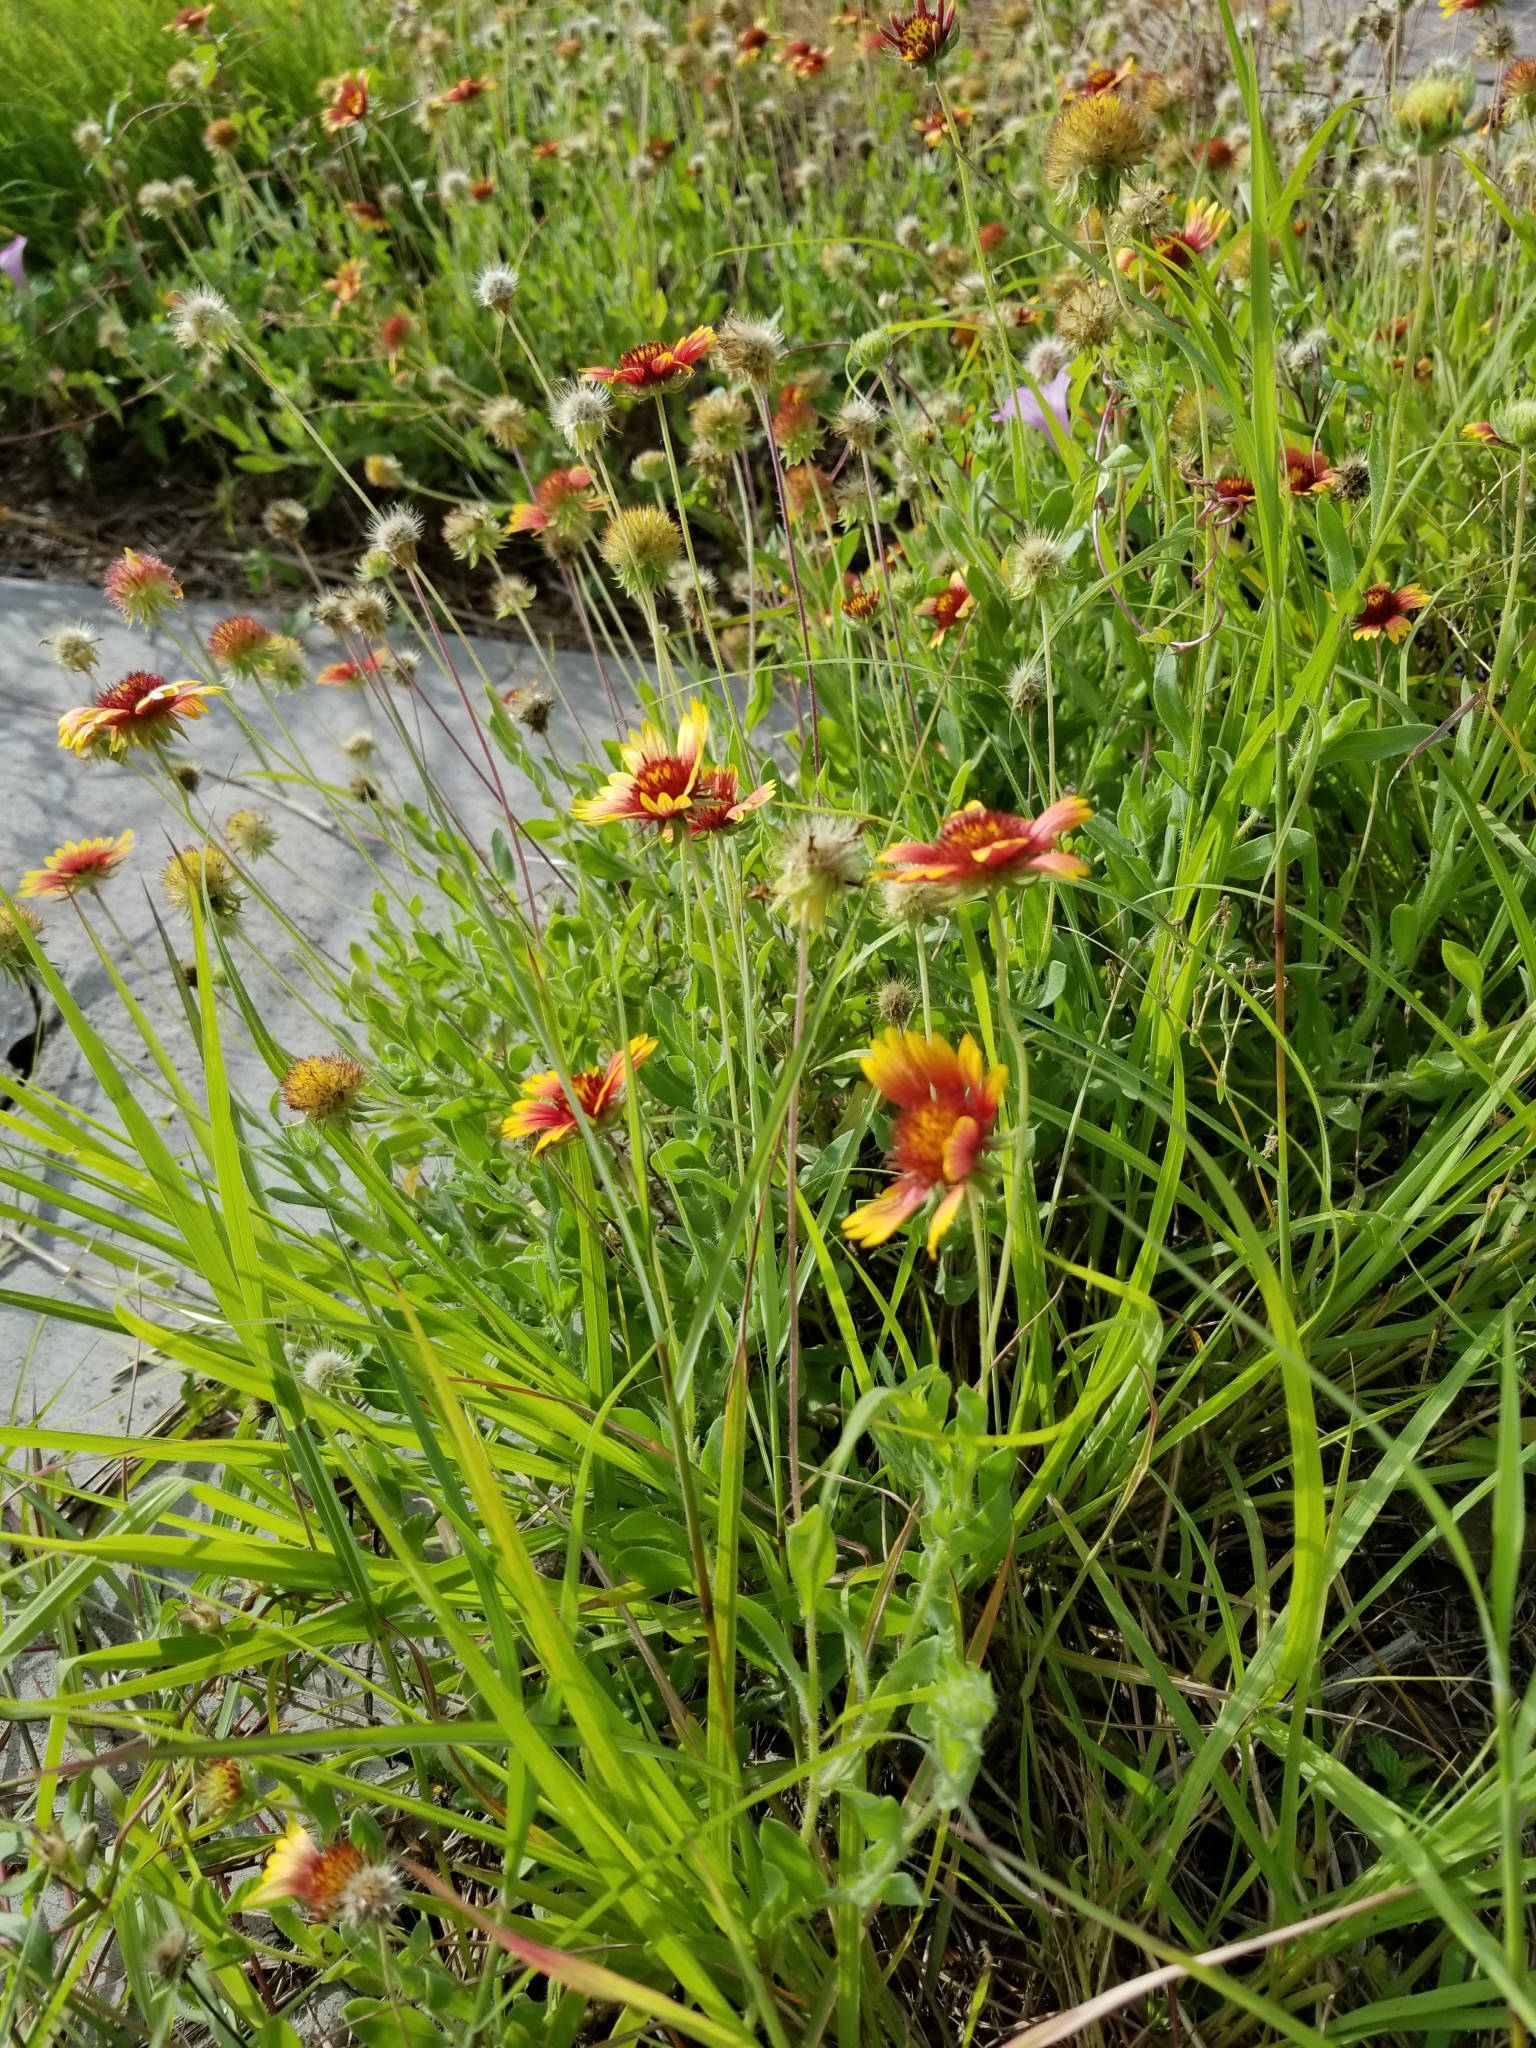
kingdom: Plantae
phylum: Tracheophyta
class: Magnoliopsida
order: Asterales
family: Asteraceae
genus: Gaillardia
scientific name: Gaillardia pulchella
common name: Firewheel
